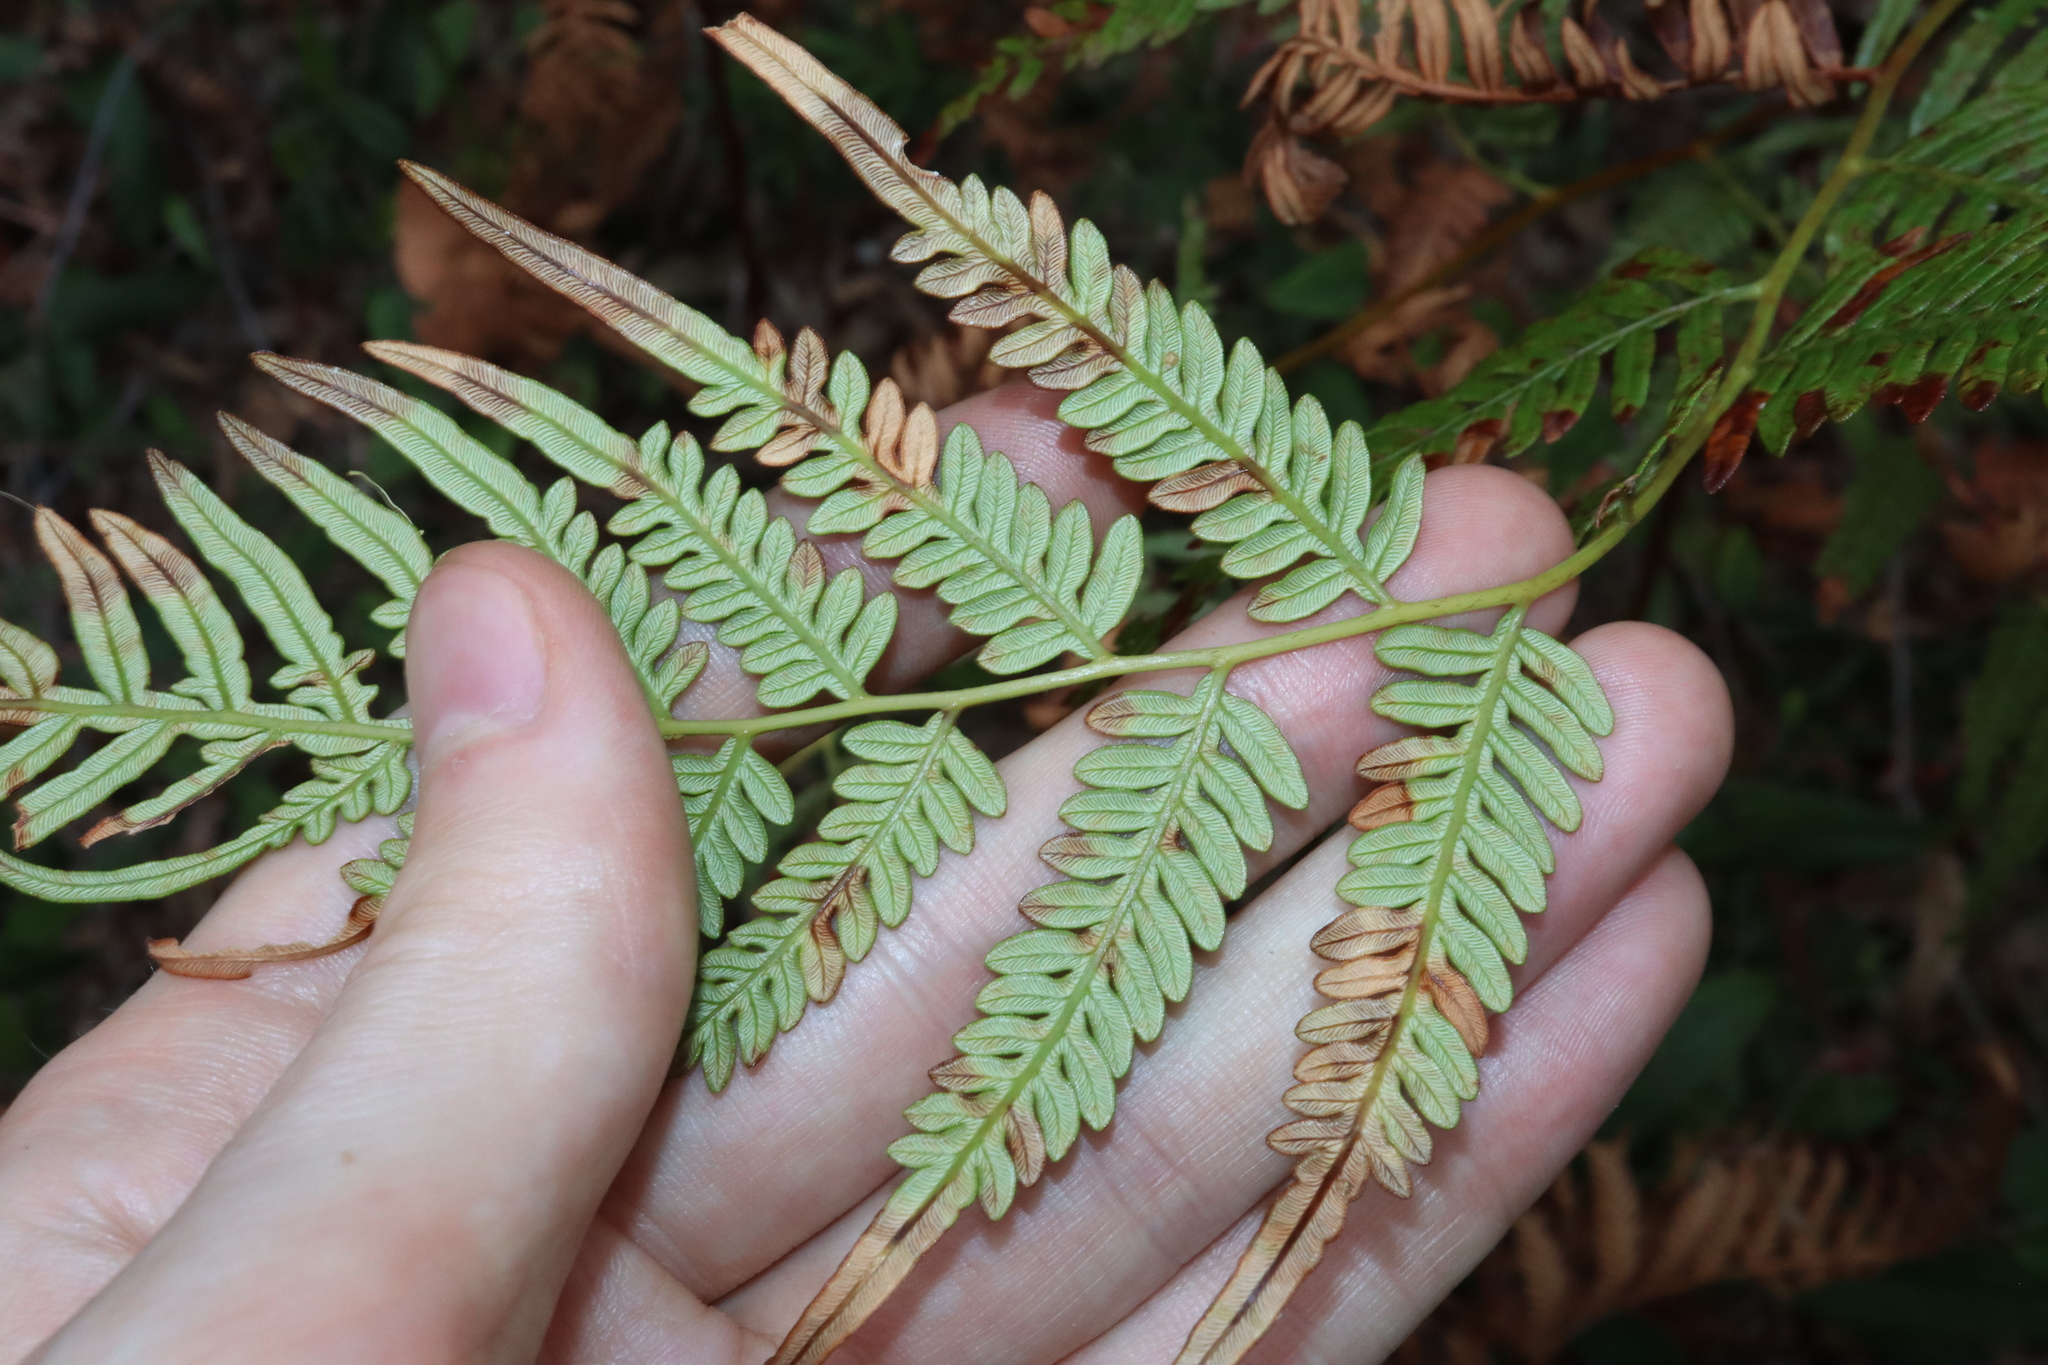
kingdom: Plantae
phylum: Tracheophyta
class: Polypodiopsida
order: Polypodiales
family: Dennstaedtiaceae
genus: Pteridium
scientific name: Pteridium esculentum
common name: Bracken fern
